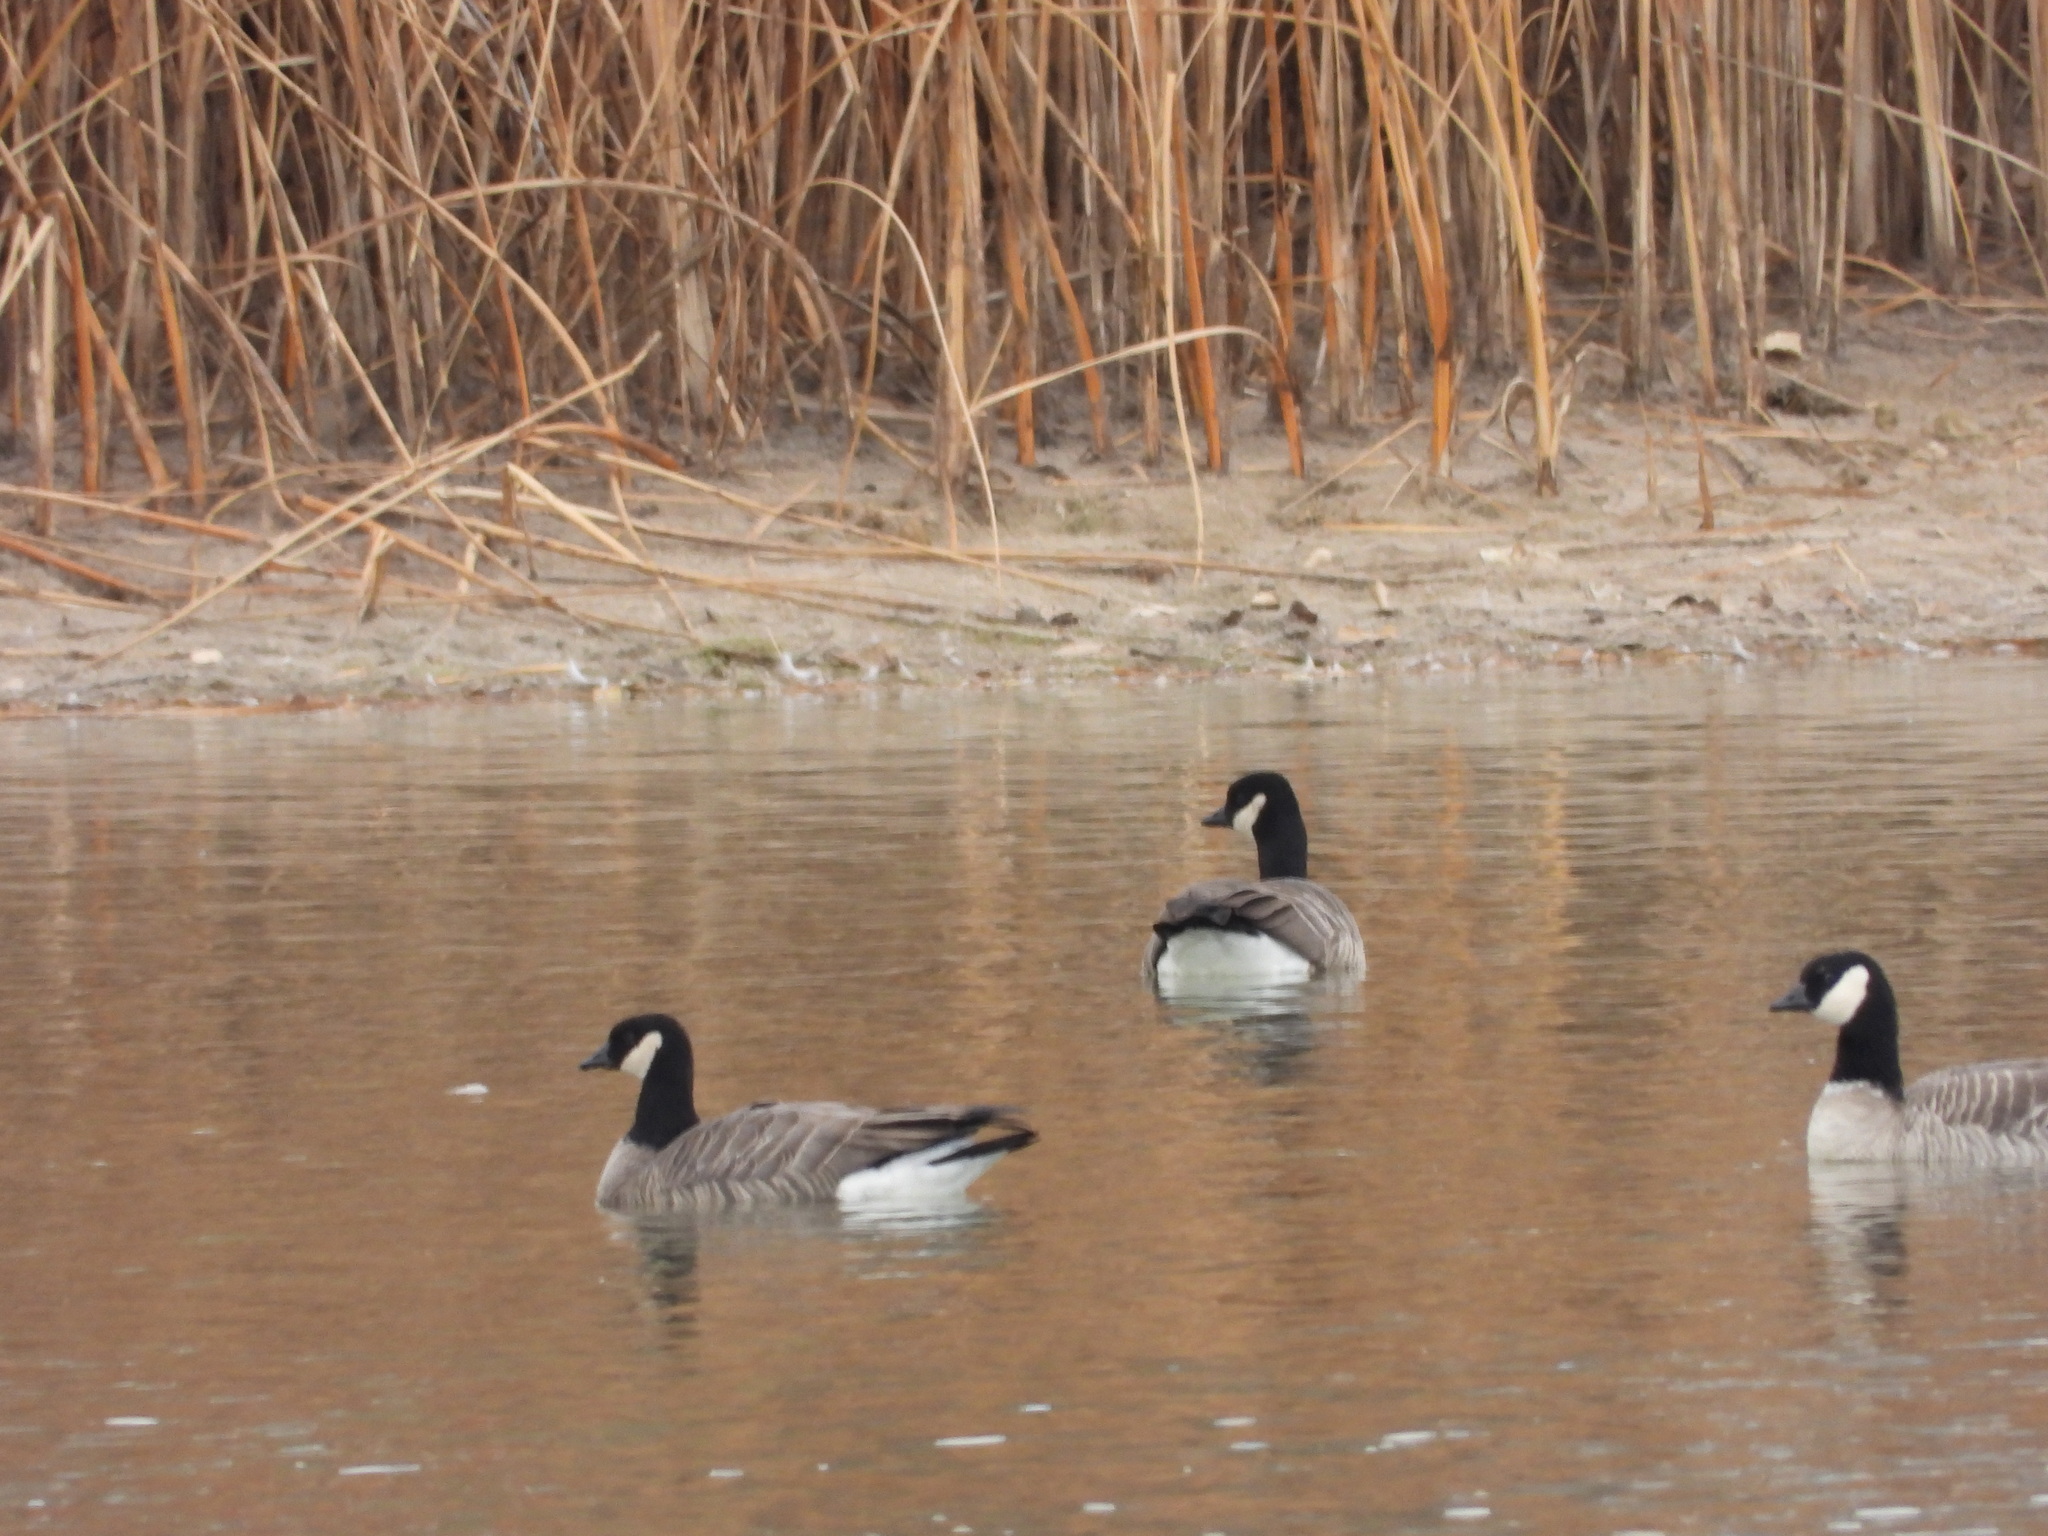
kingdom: Animalia
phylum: Chordata
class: Aves
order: Anseriformes
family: Anatidae
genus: Branta
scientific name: Branta hutchinsii
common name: Cackling goose
